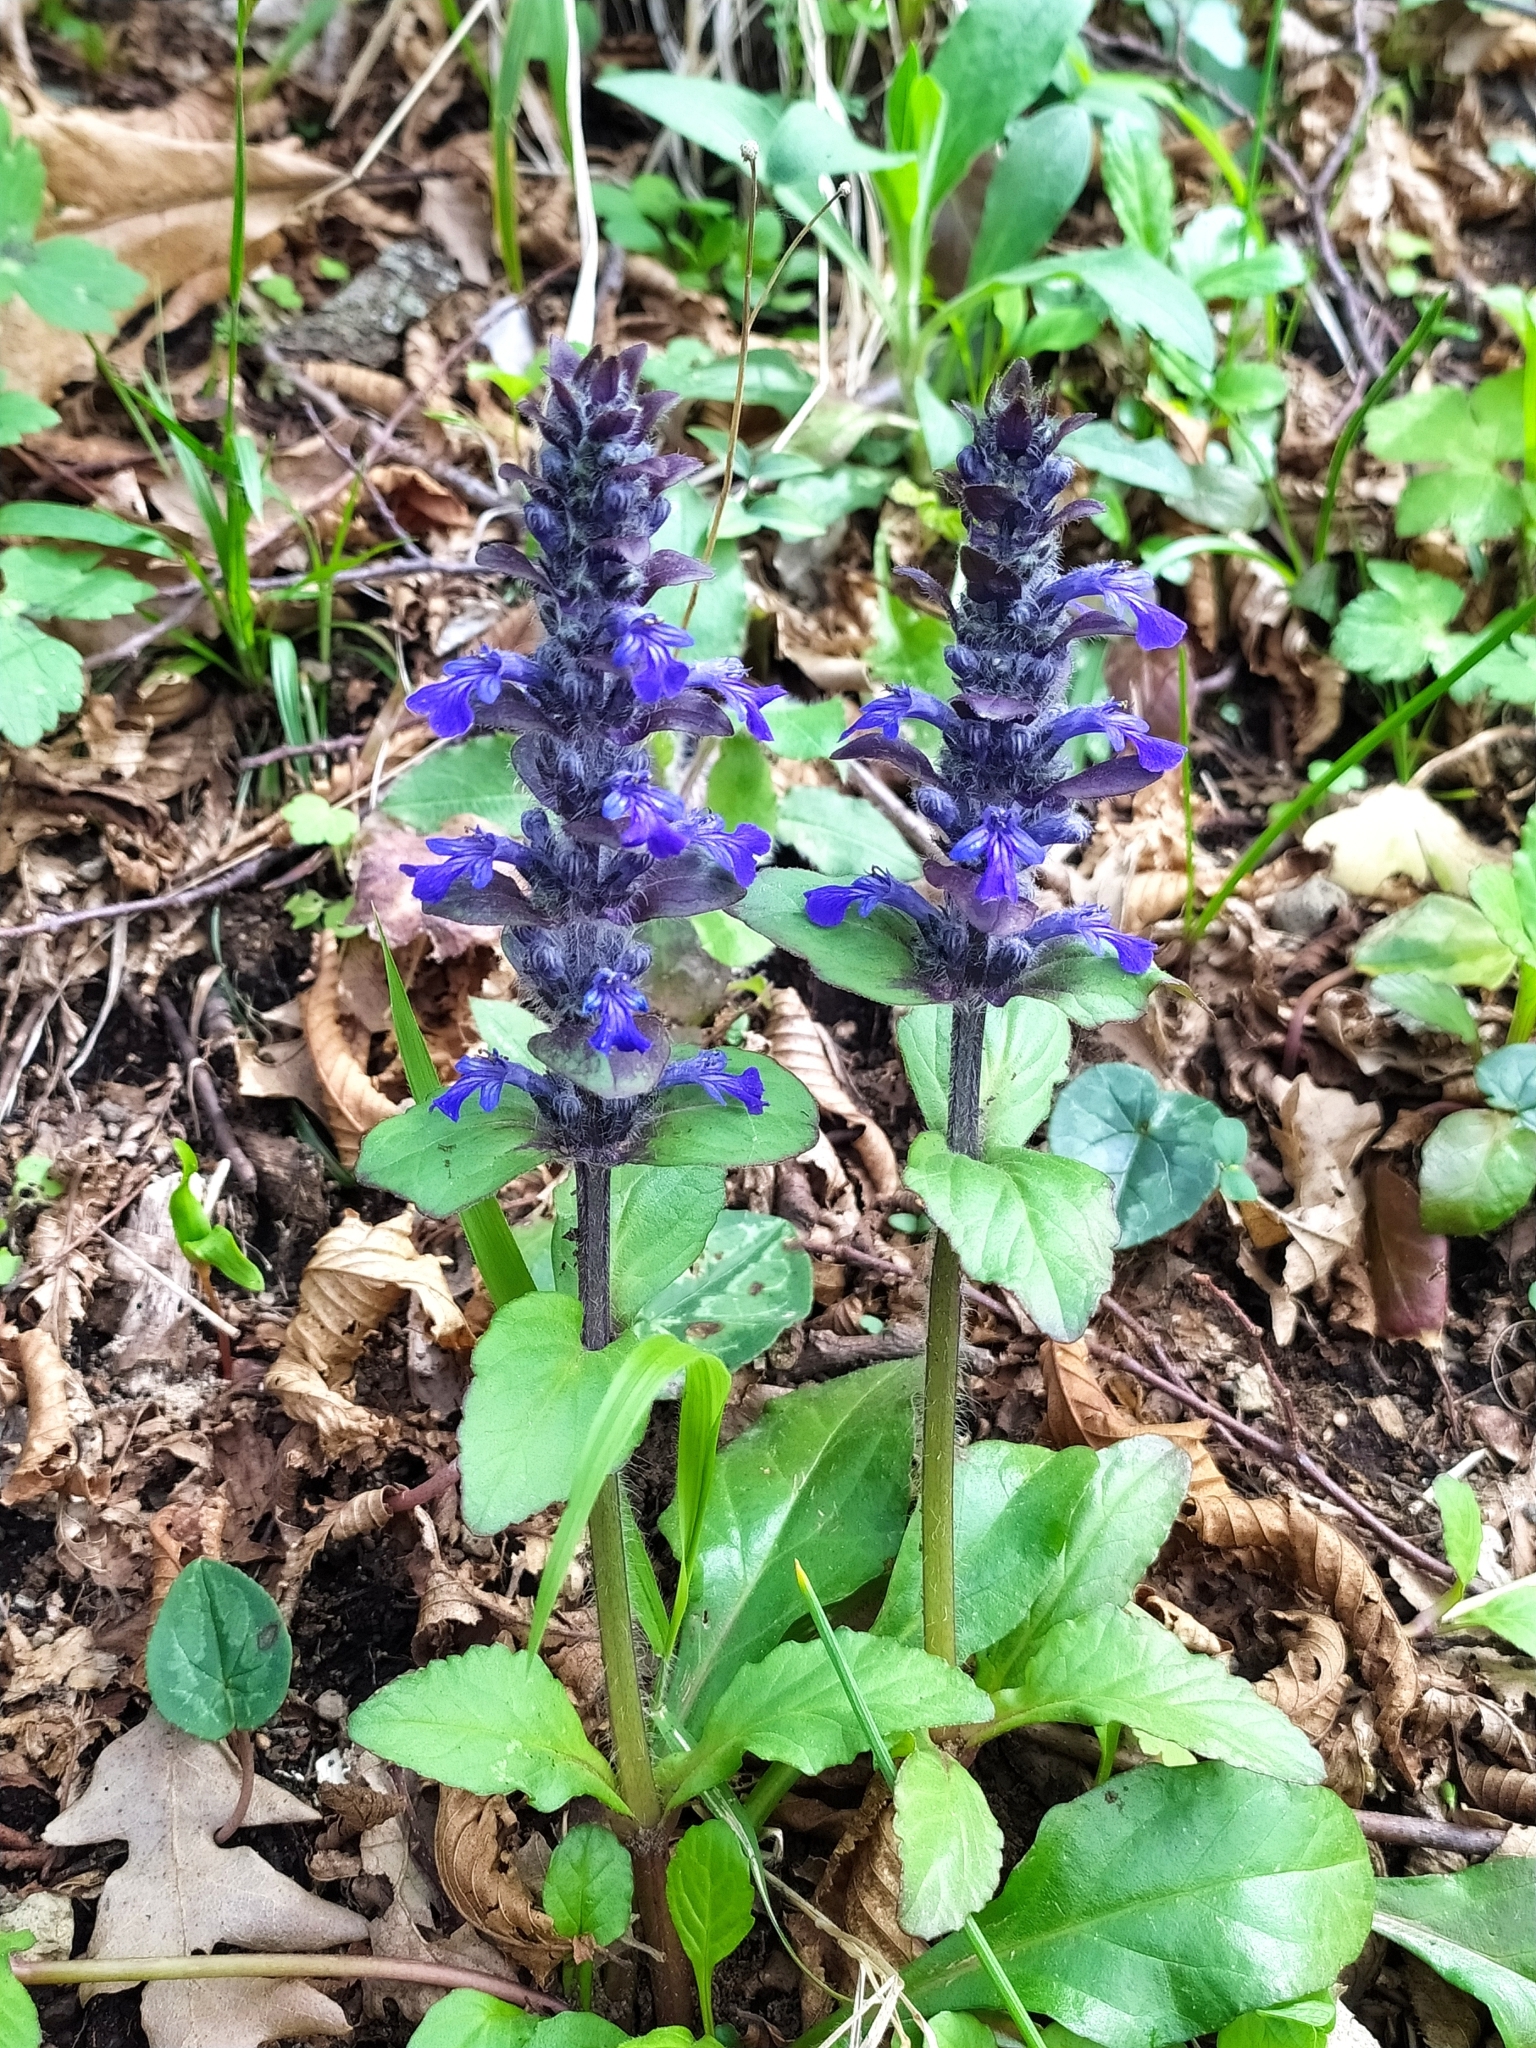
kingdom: Plantae
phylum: Tracheophyta
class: Magnoliopsida
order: Lamiales
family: Lamiaceae
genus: Ajuga
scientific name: Ajuga reptans
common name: Bugle
